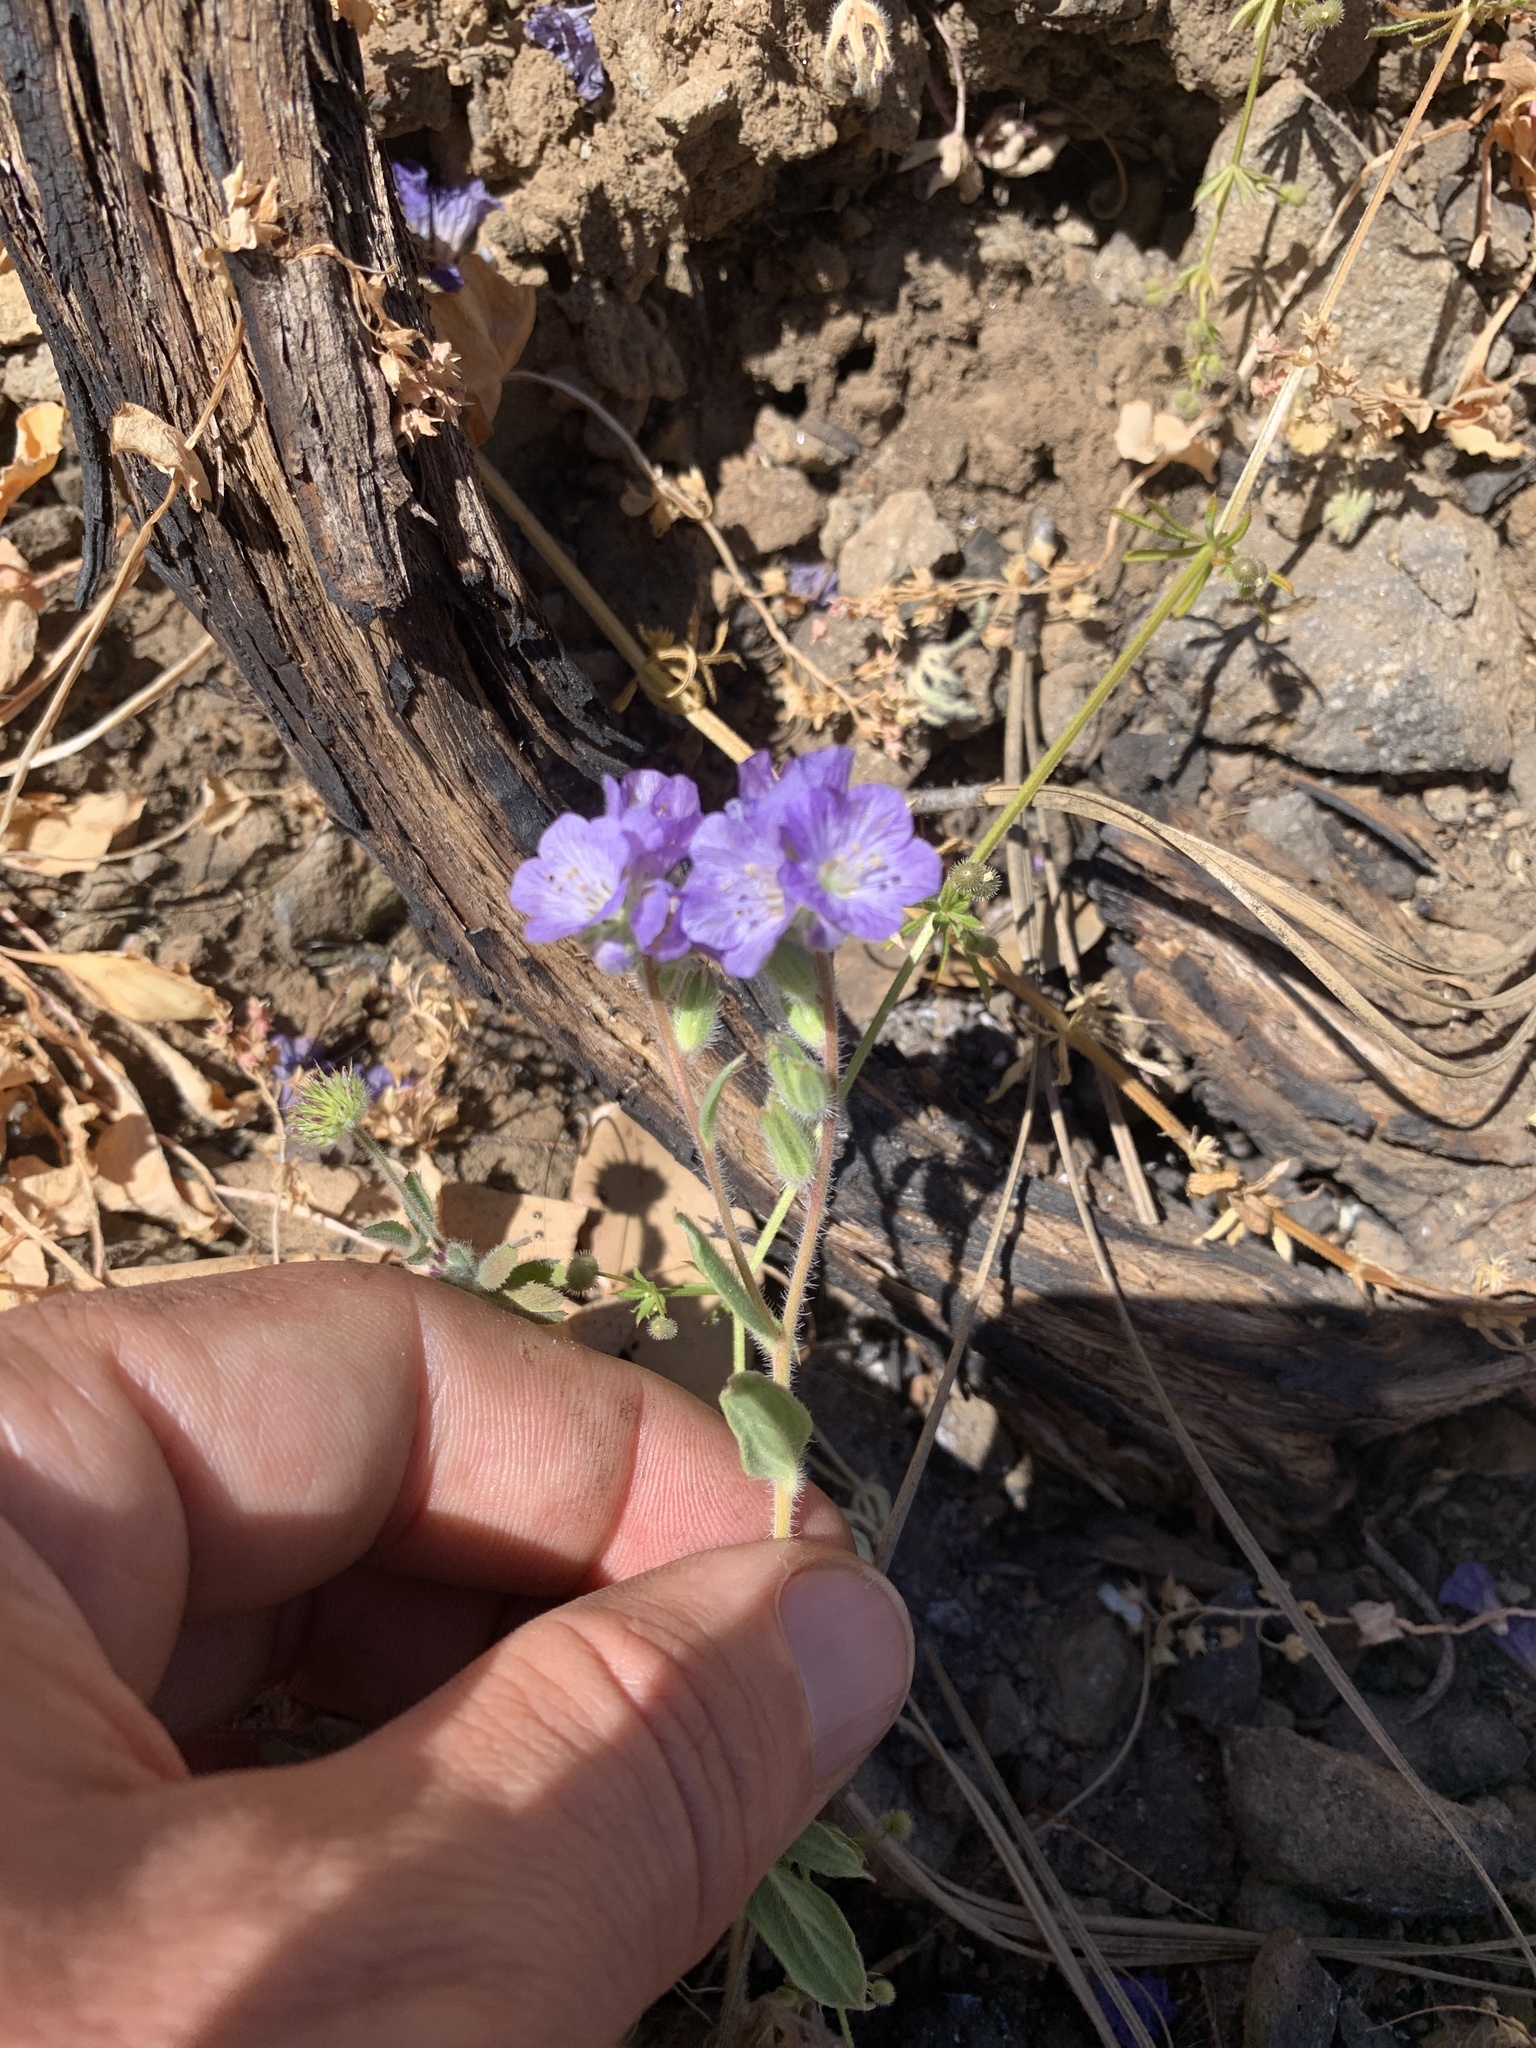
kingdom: Plantae
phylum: Tracheophyta
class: Magnoliopsida
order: Boraginales
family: Hydrophyllaceae
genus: Phacelia
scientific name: Phacelia divaricata
